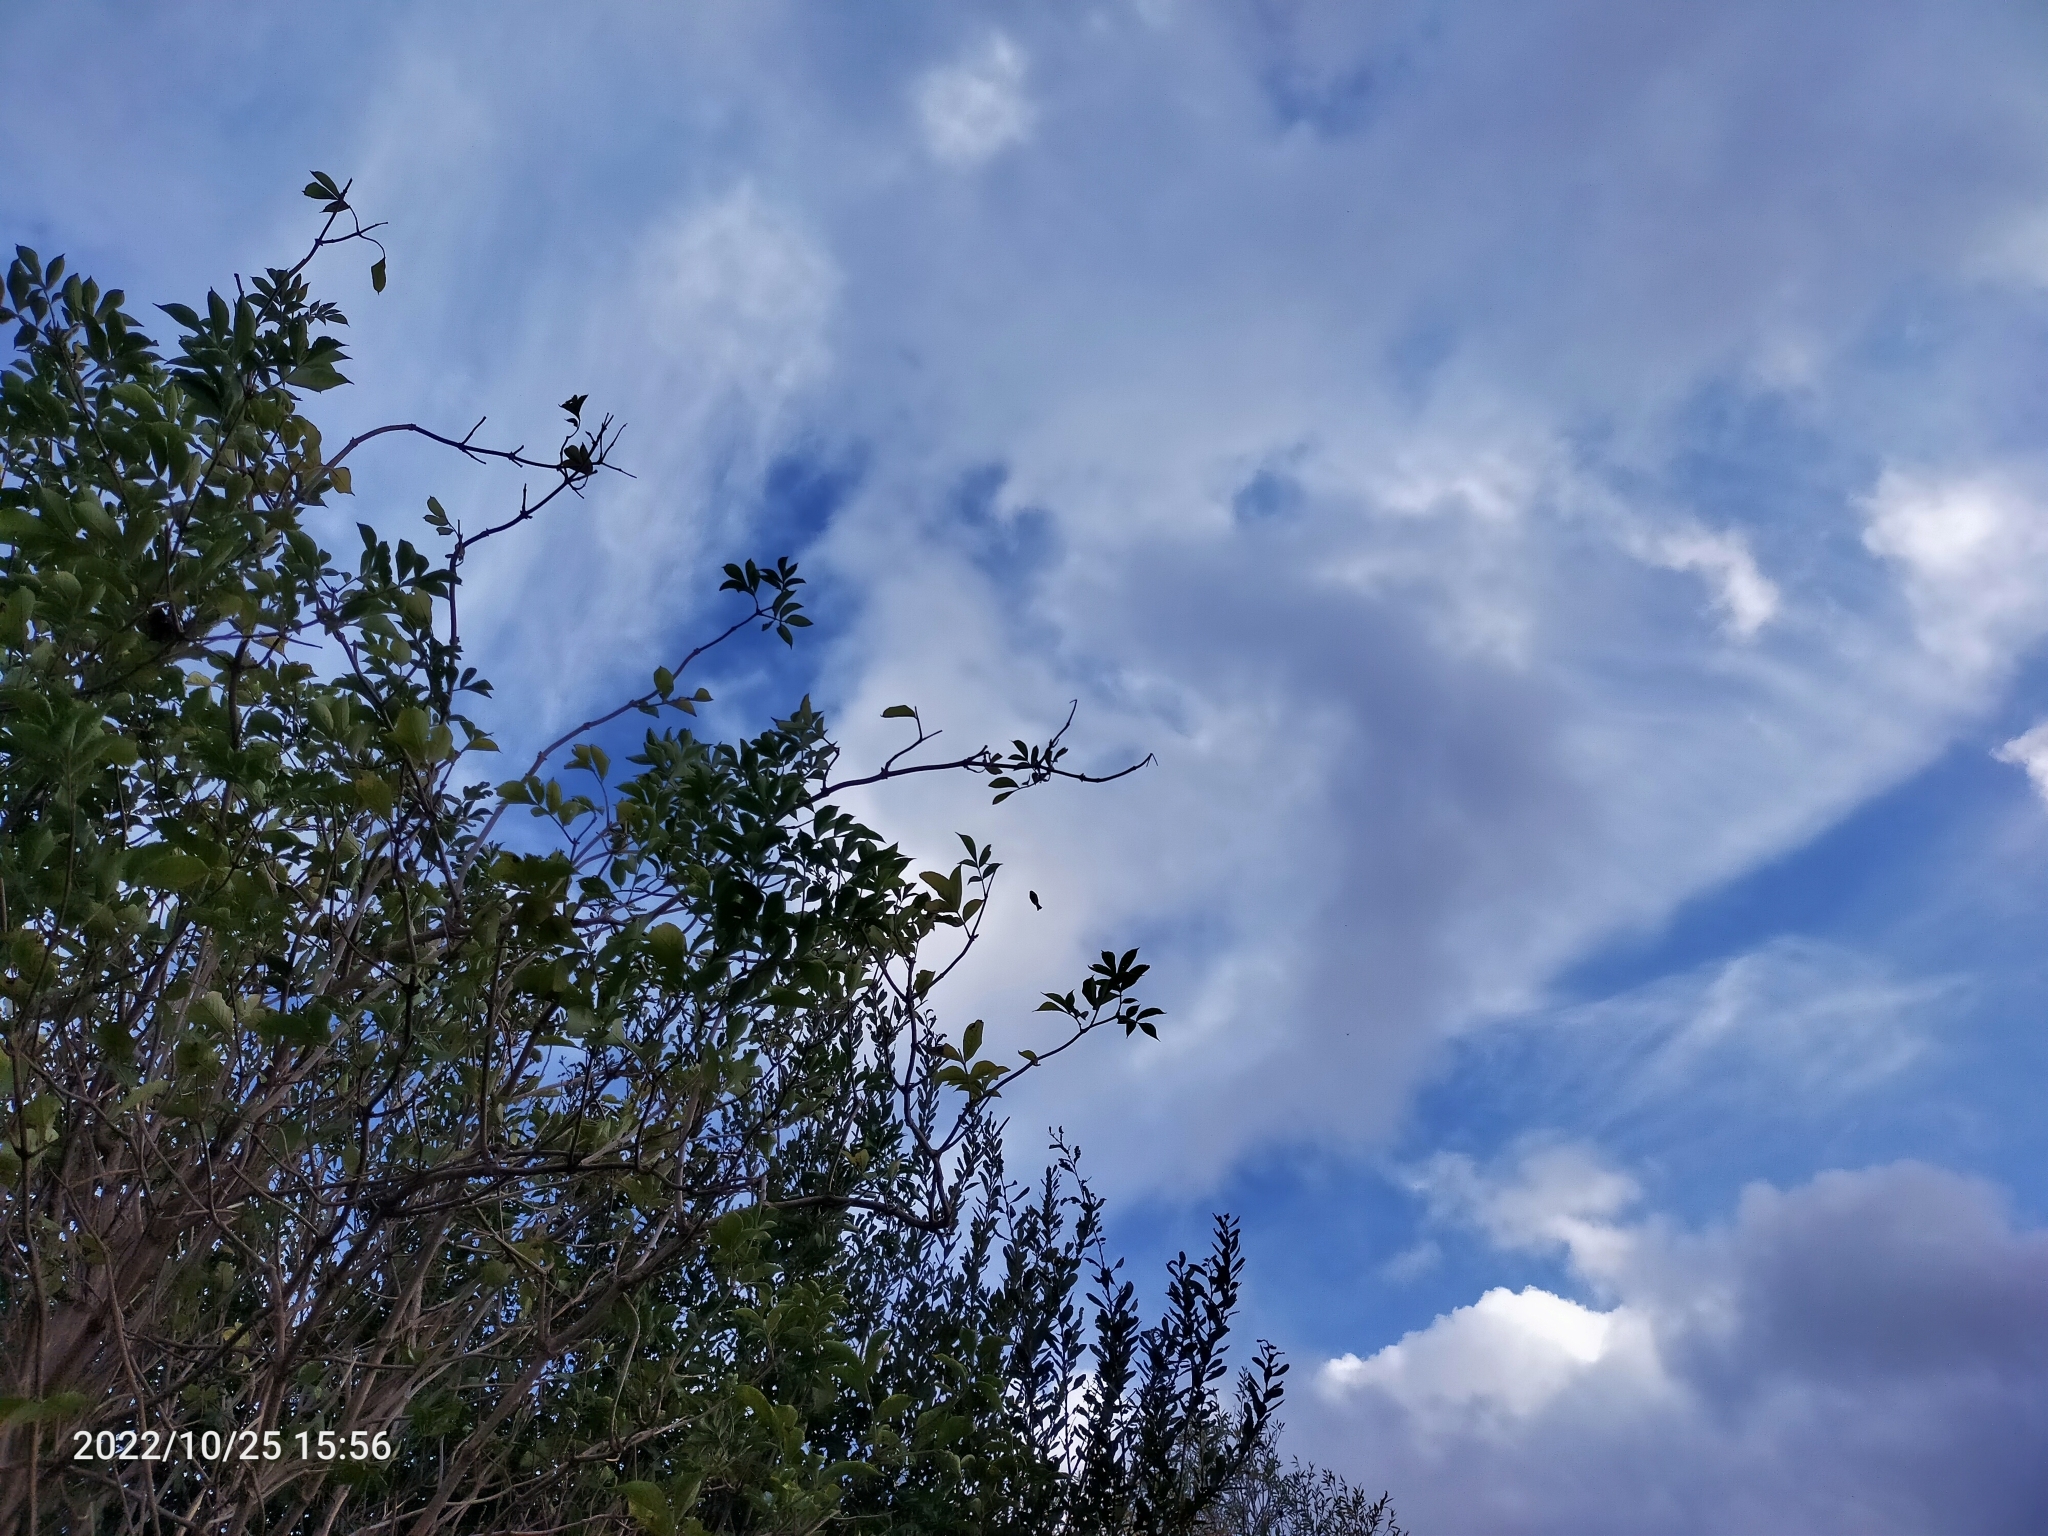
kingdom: Animalia
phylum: Chordata
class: Aves
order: Passeriformes
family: Aegithalidae
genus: Aegithalos
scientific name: Aegithalos caudatus
